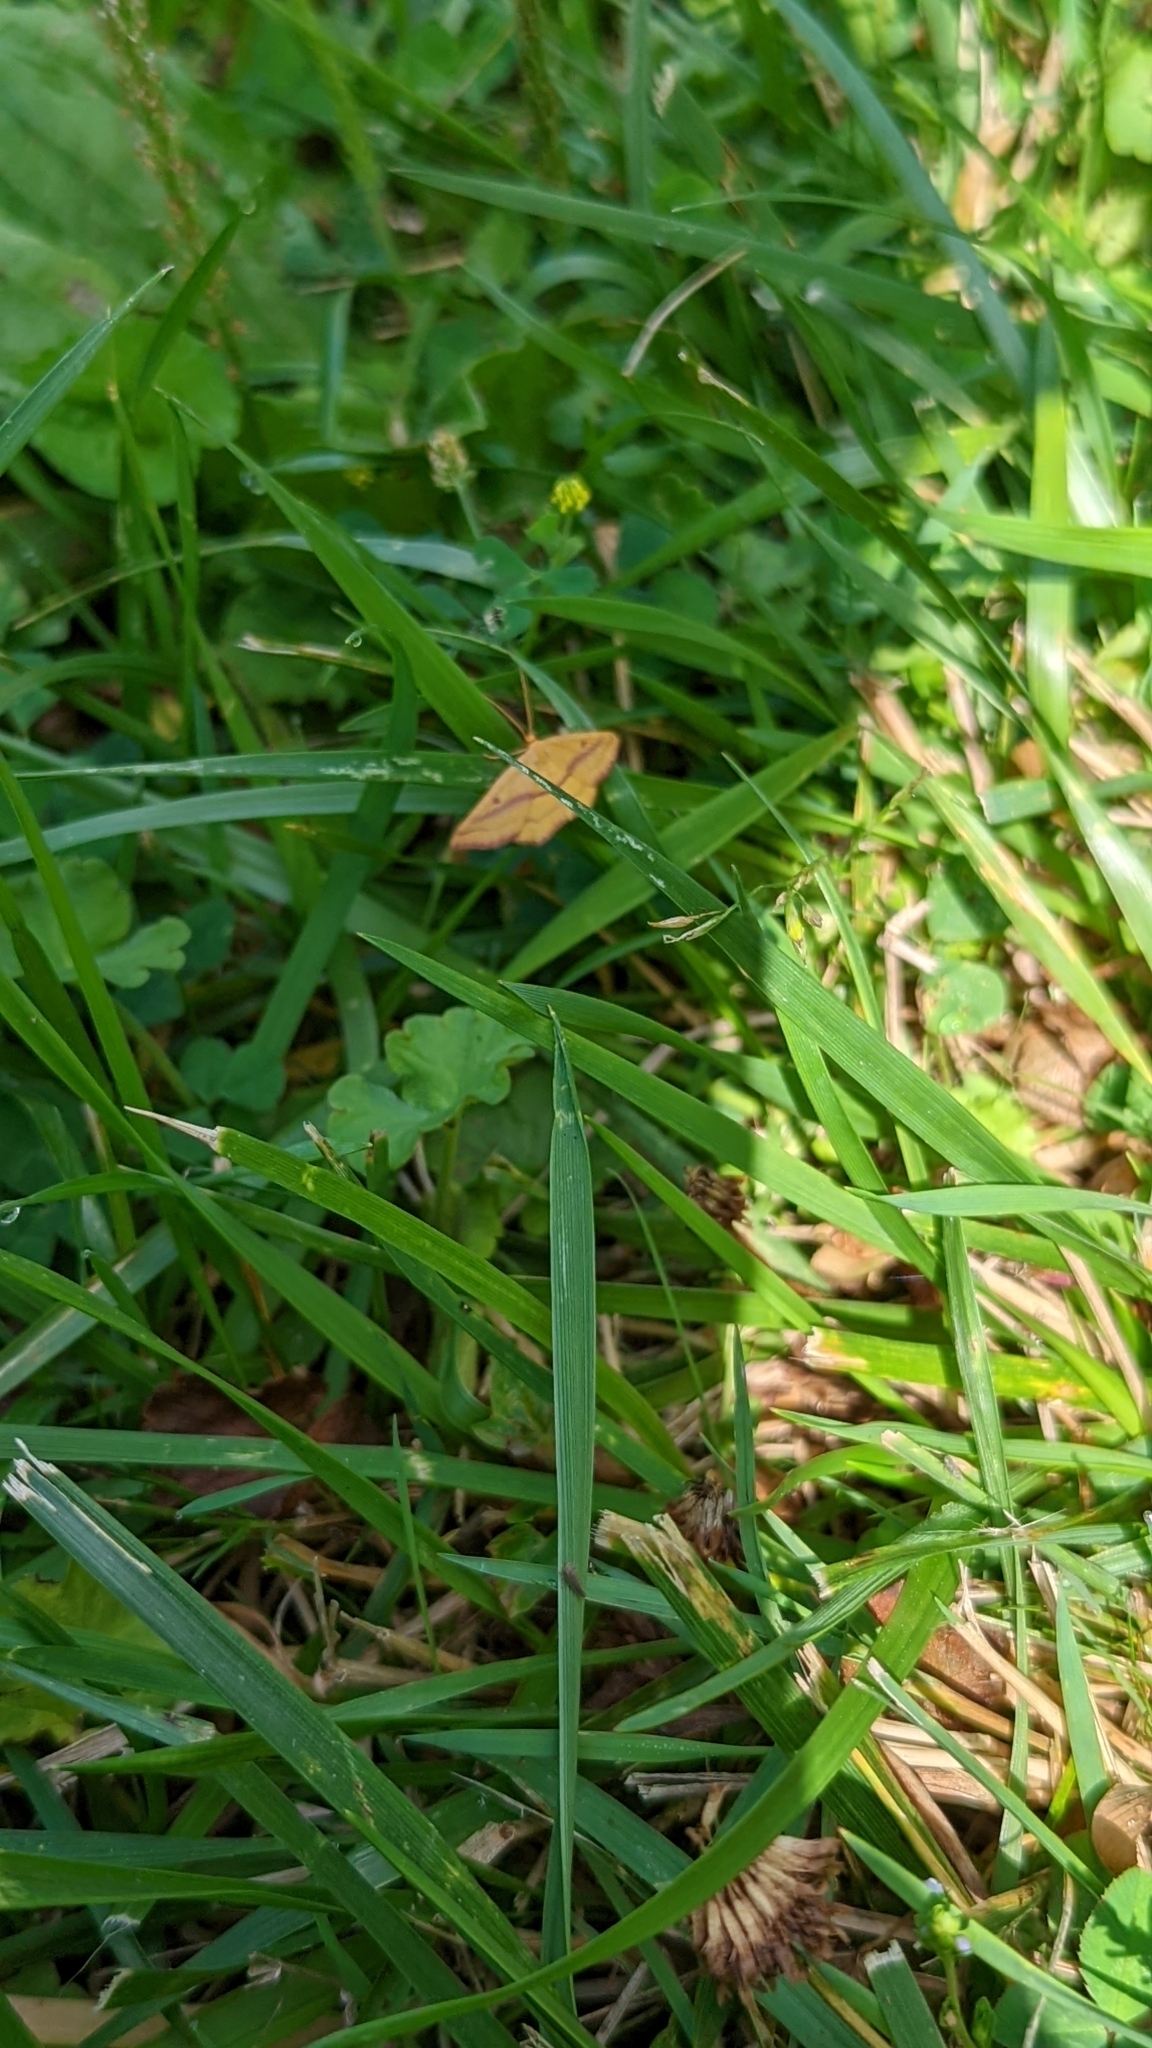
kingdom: Animalia
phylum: Arthropoda
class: Insecta
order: Lepidoptera
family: Geometridae
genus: Haematopis
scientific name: Haematopis grataria
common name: Chickweed geometer
